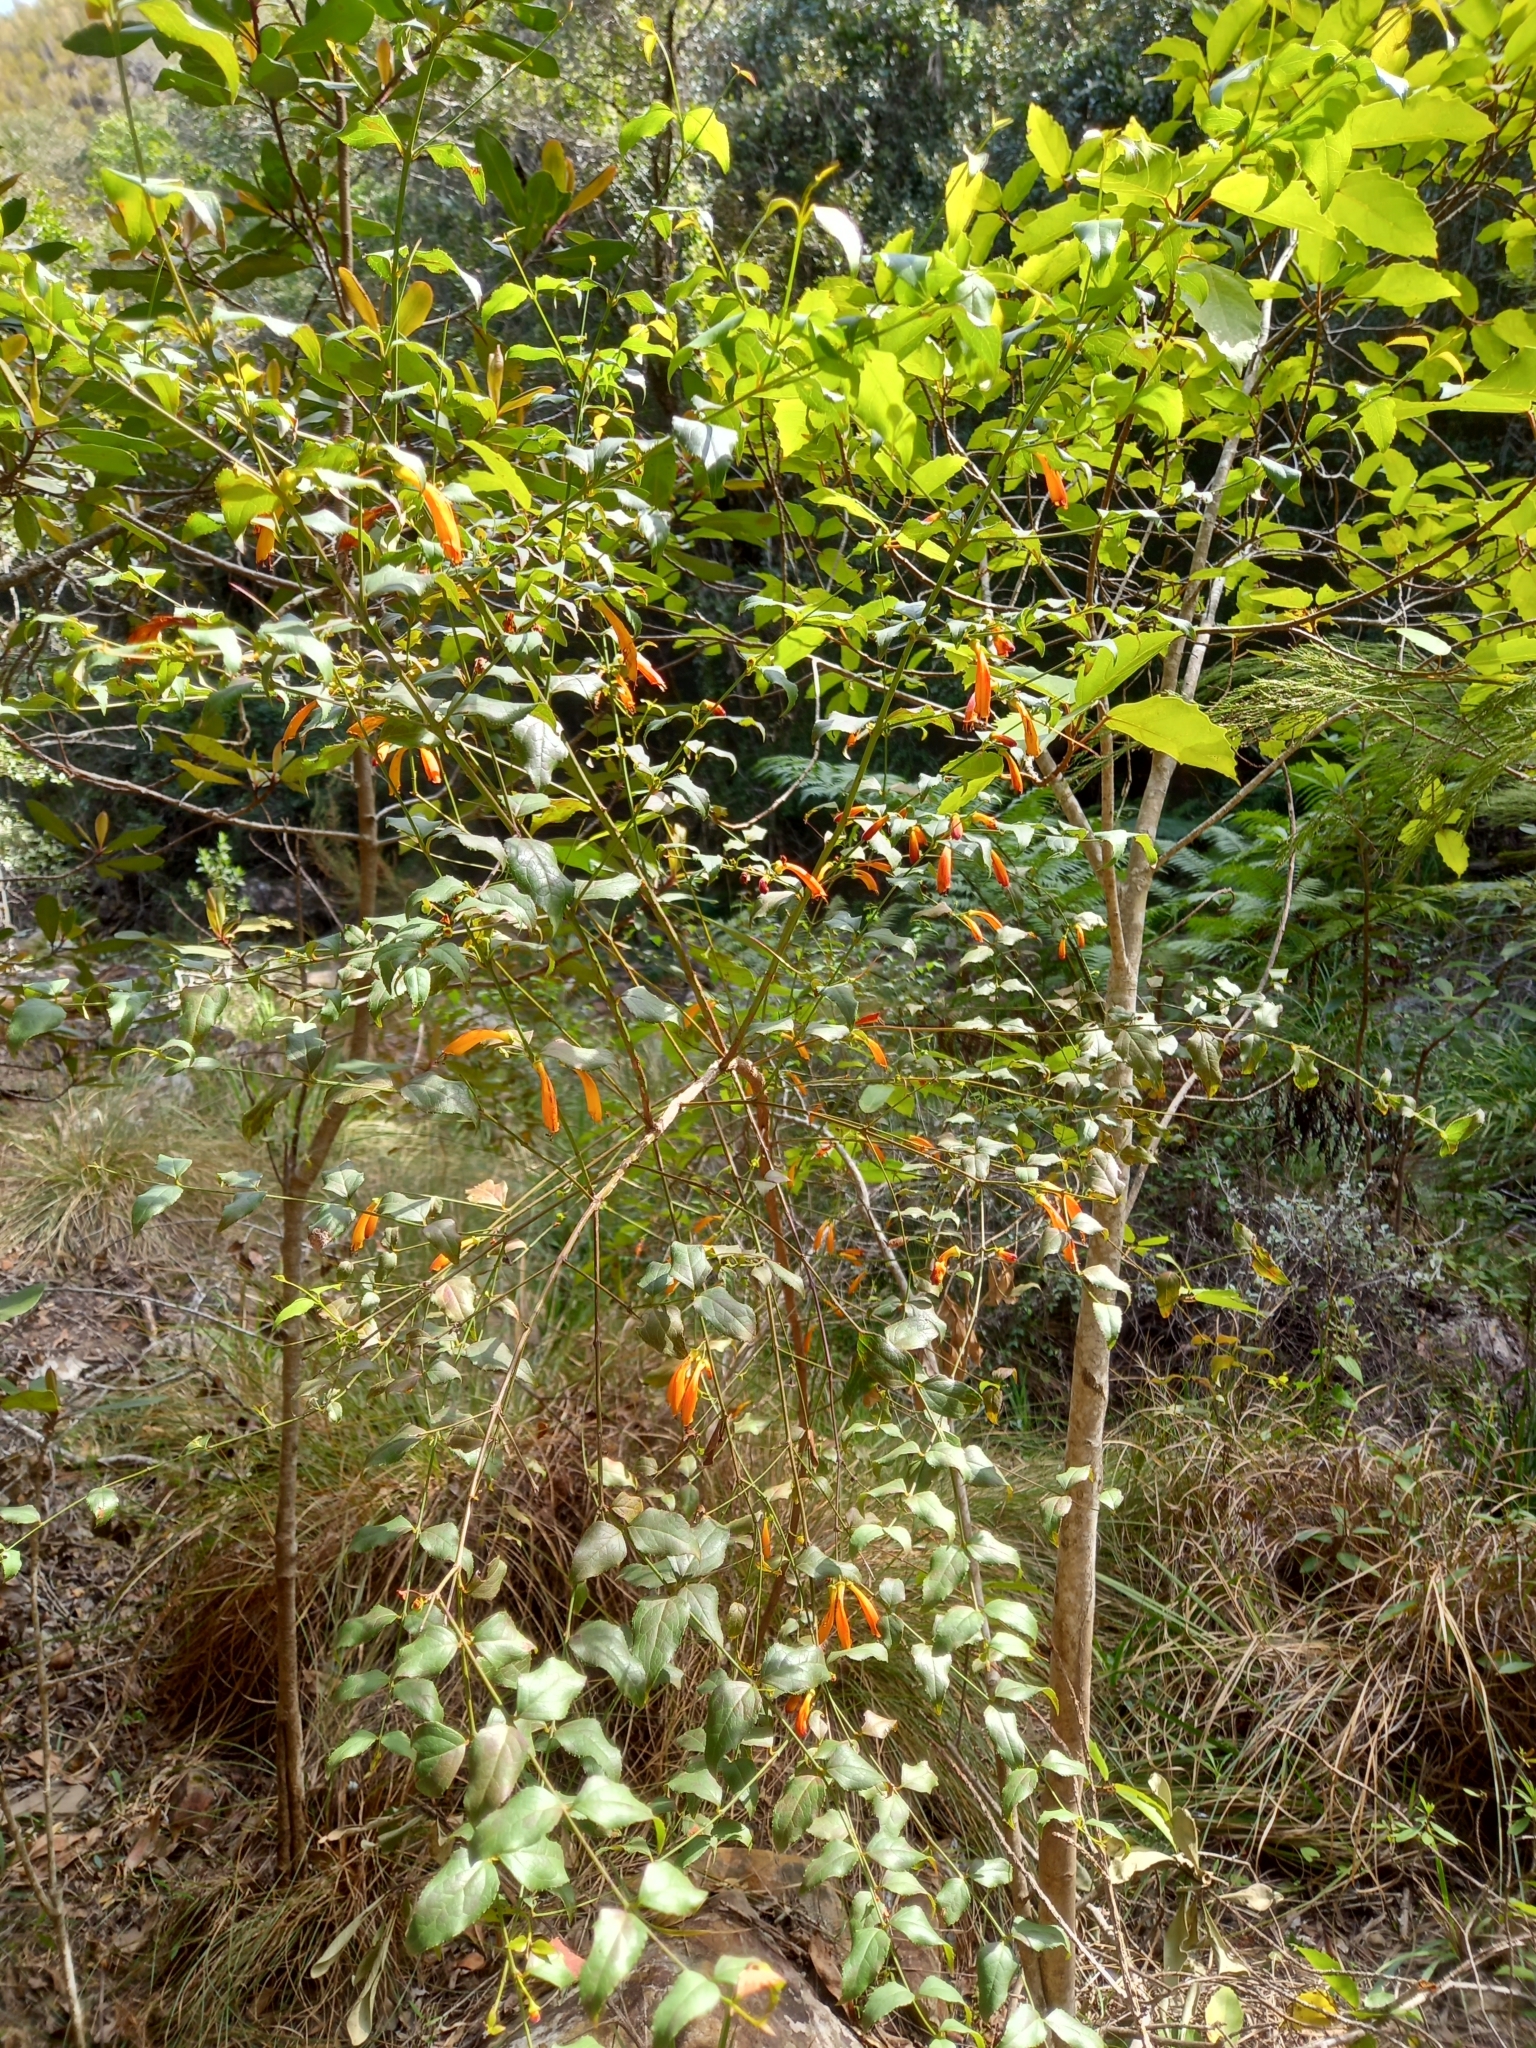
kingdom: Plantae
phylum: Tracheophyta
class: Magnoliopsida
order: Lamiales
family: Stilbaceae
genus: Halleria
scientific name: Halleria lucida
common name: Tree fuschia
